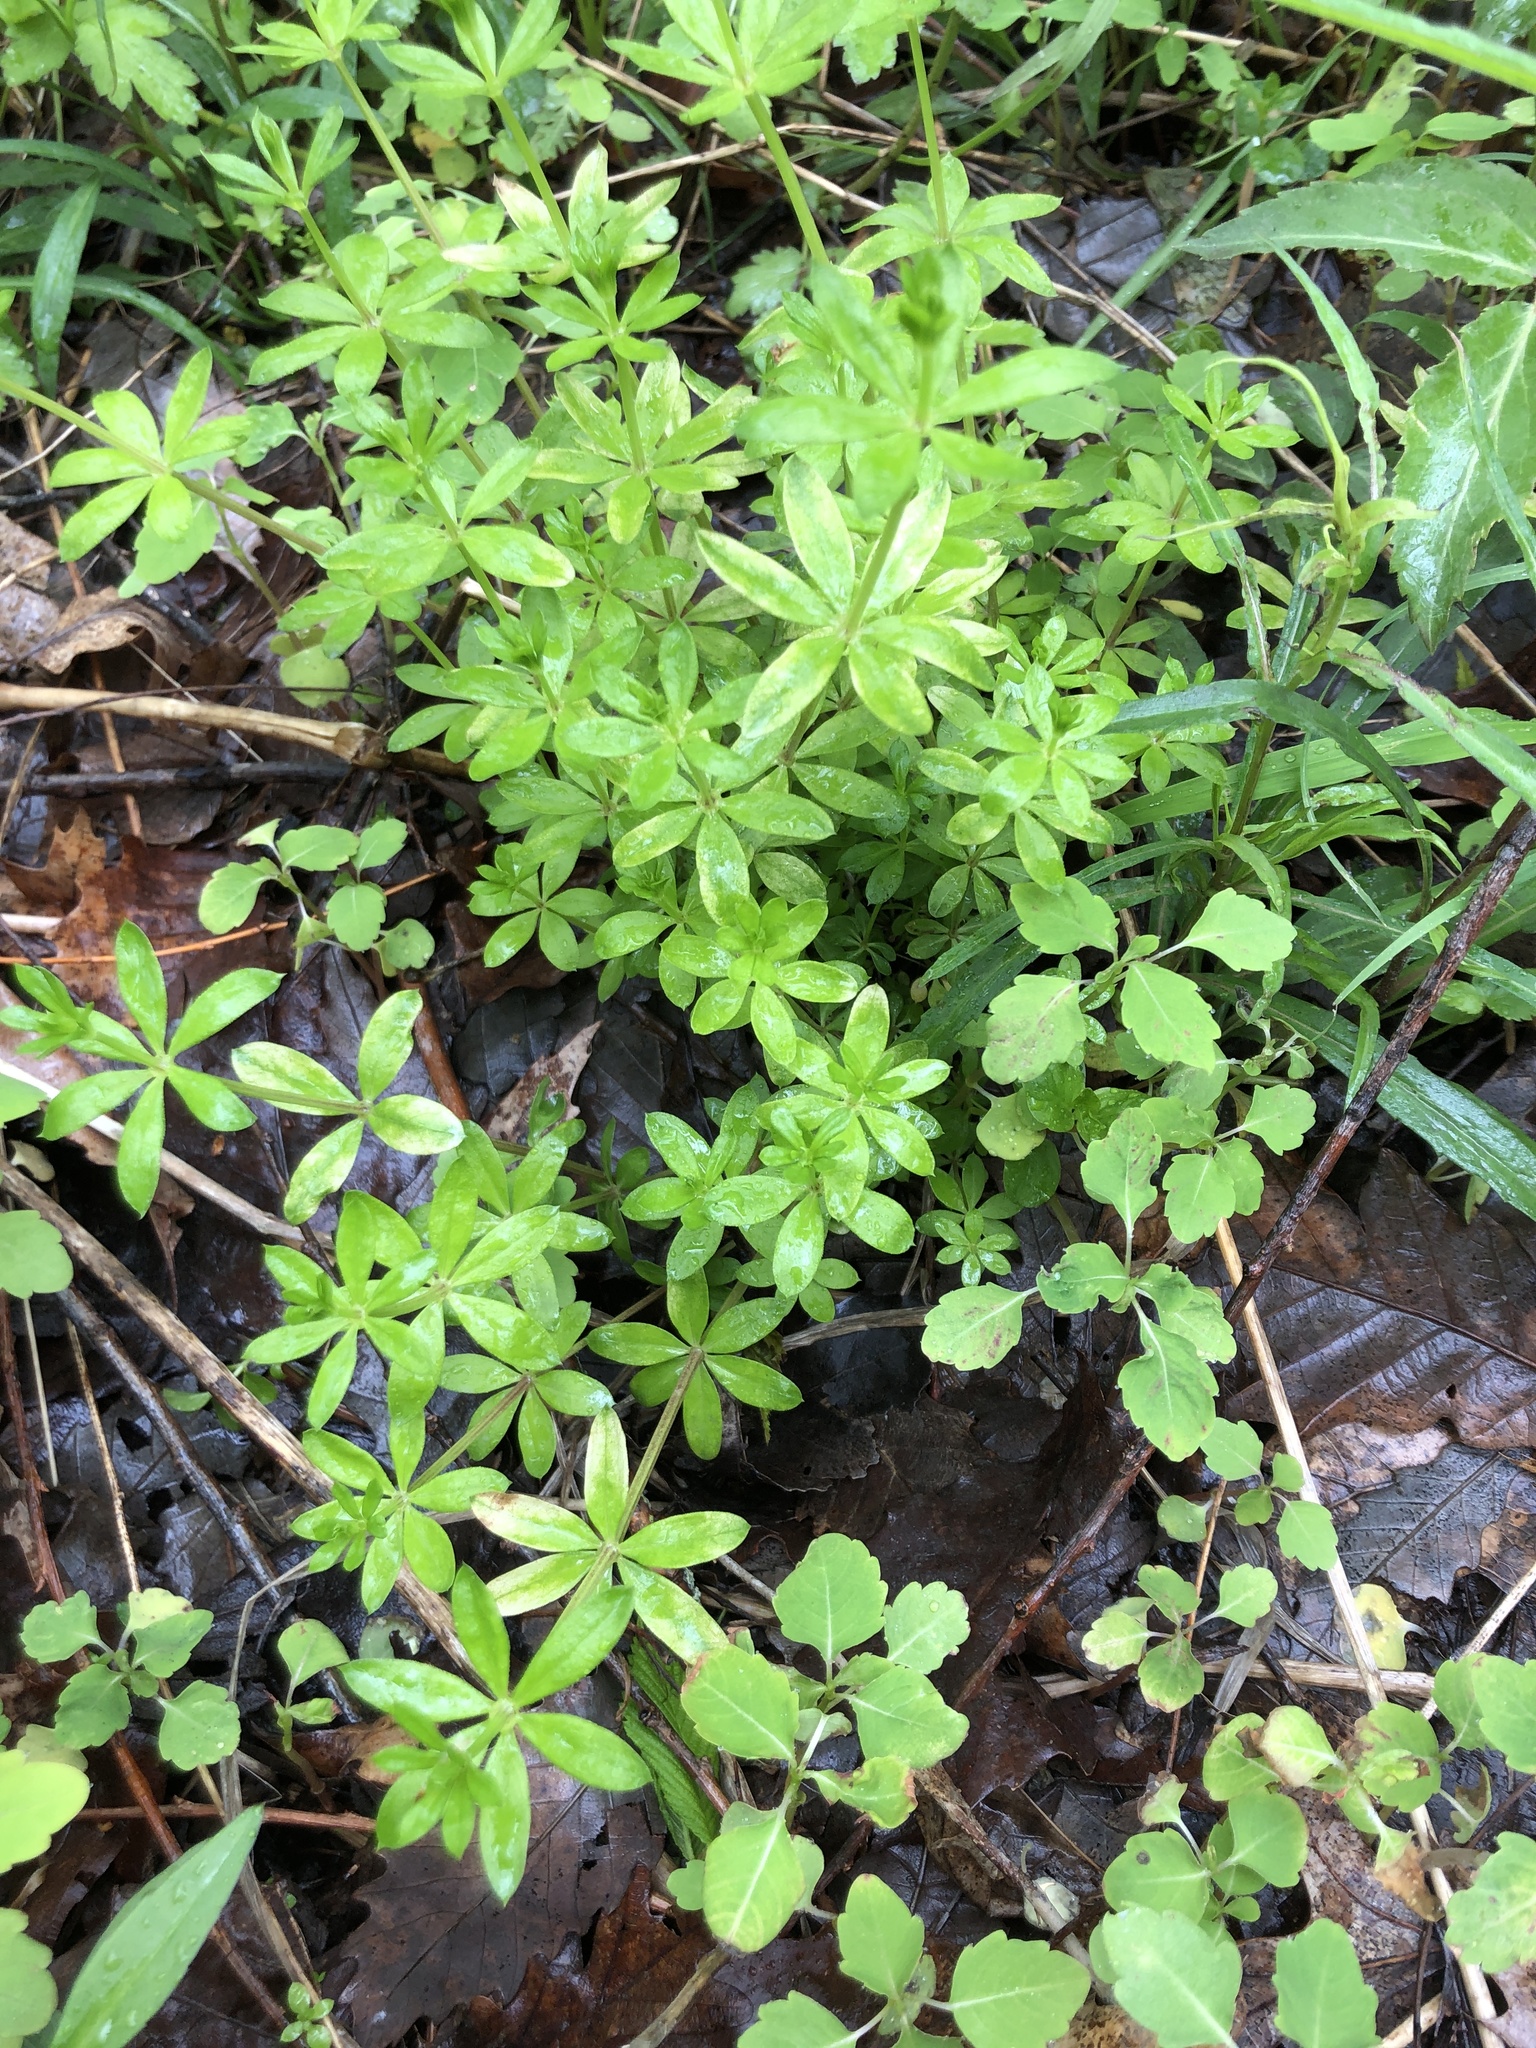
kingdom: Plantae
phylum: Tracheophyta
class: Magnoliopsida
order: Gentianales
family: Rubiaceae
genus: Galium
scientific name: Galium triflorum
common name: Fragrant bedstraw
